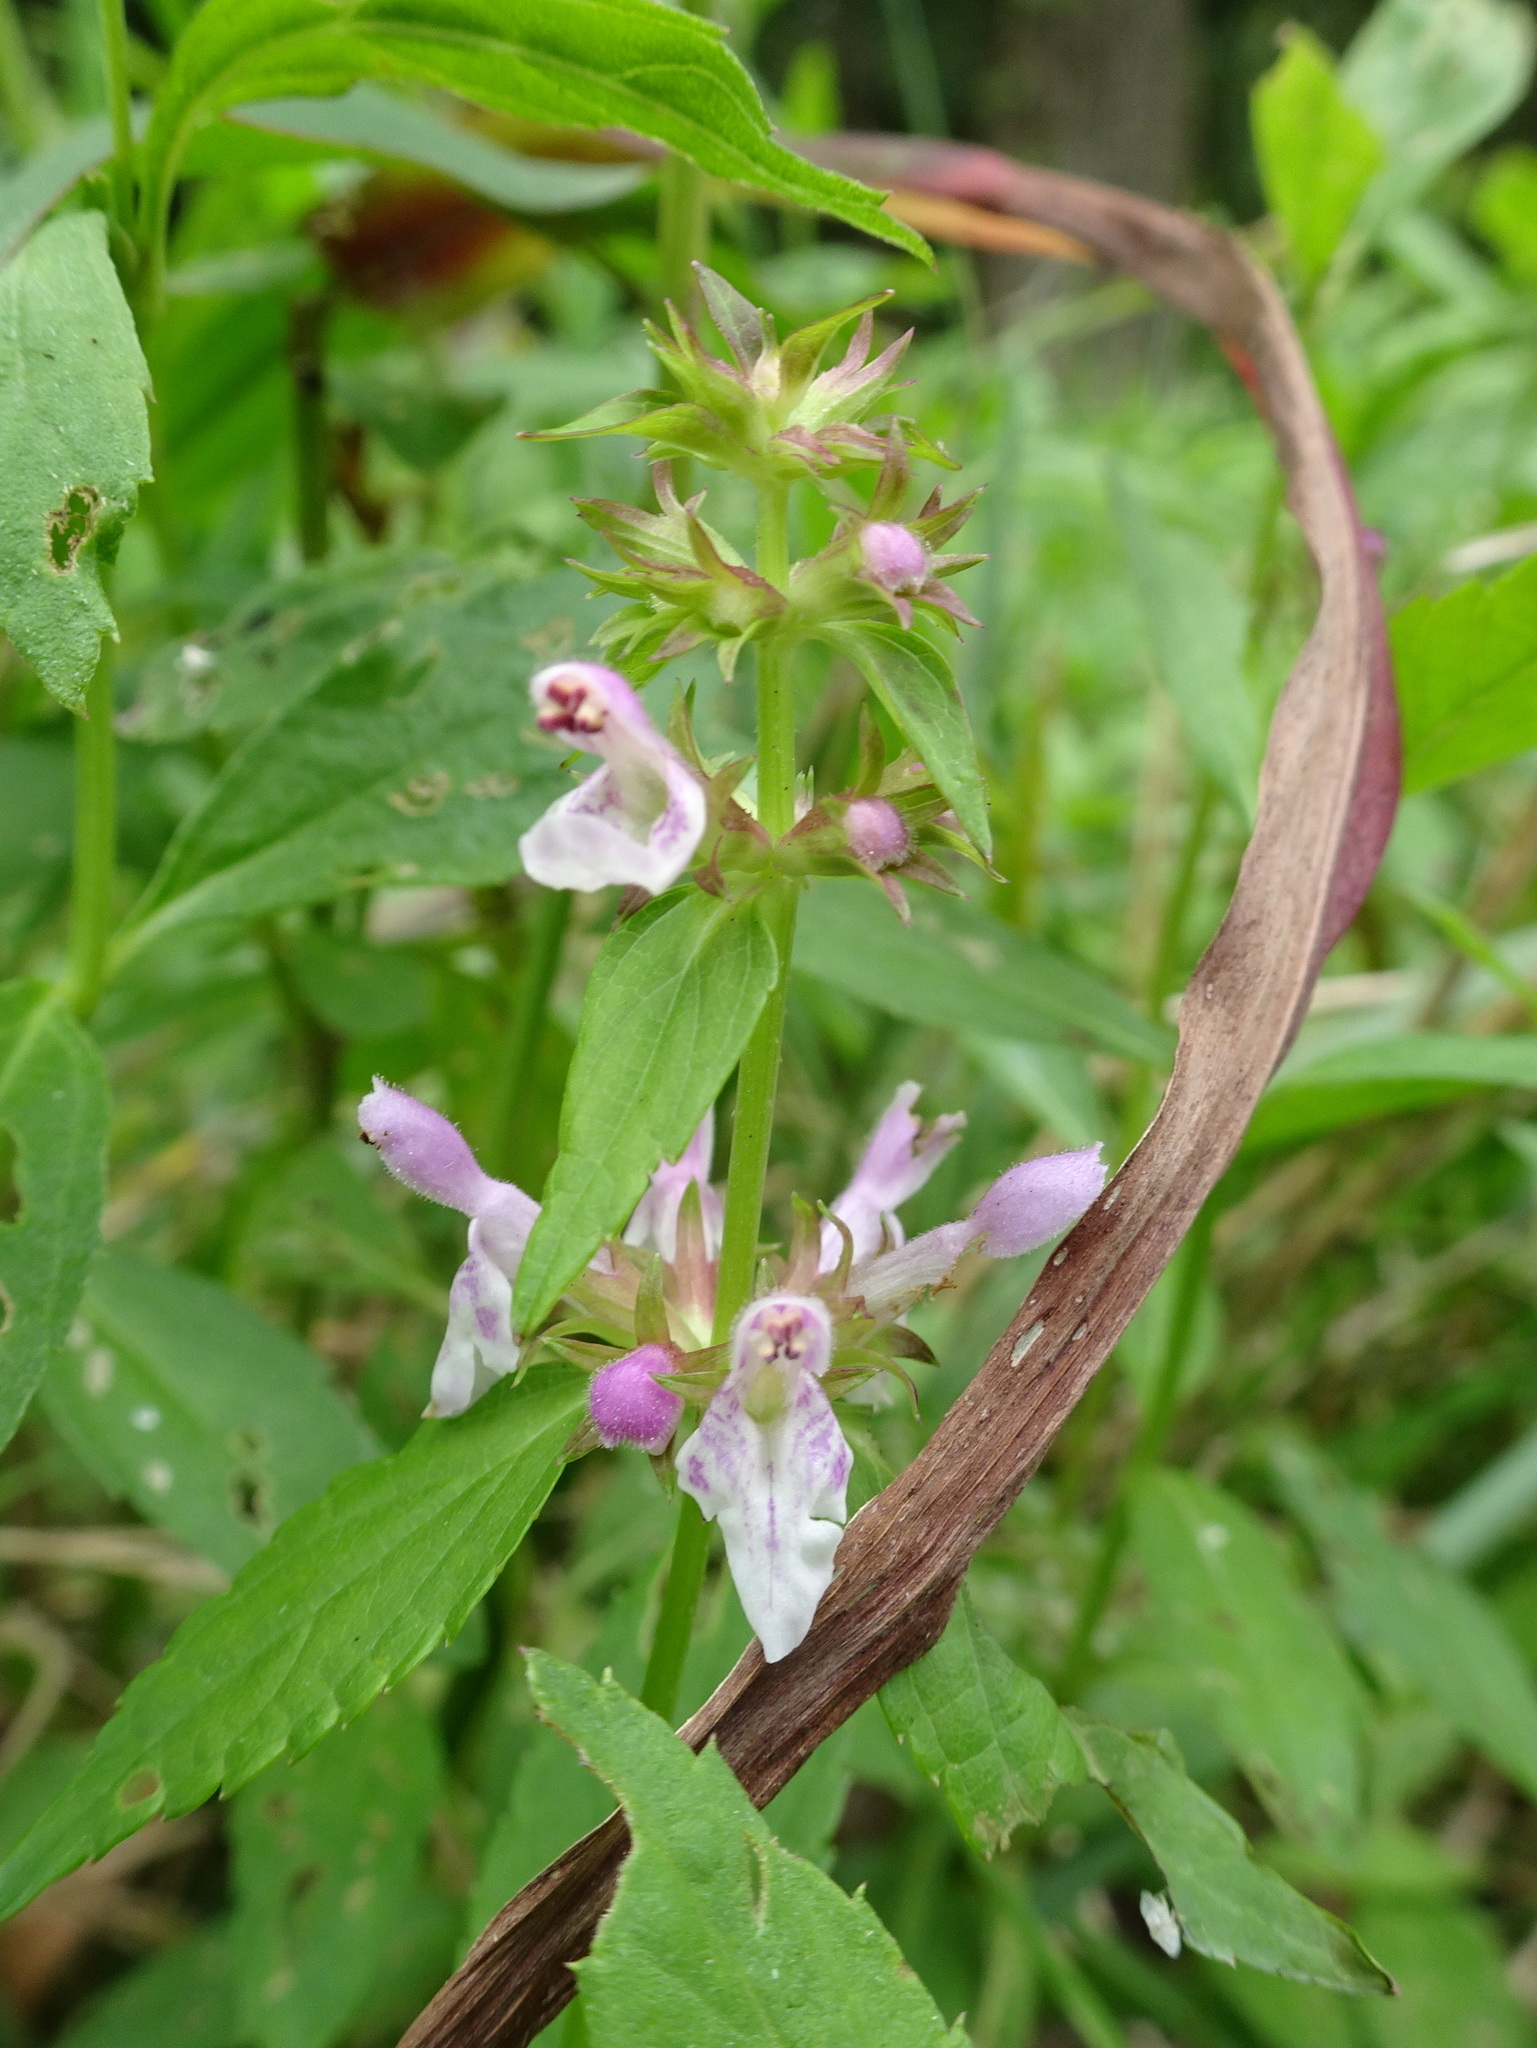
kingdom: Plantae
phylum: Tracheophyta
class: Magnoliopsida
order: Lamiales
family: Lamiaceae
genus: Stachys
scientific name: Stachys tenuifolia
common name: Smooth hedge-nettle
